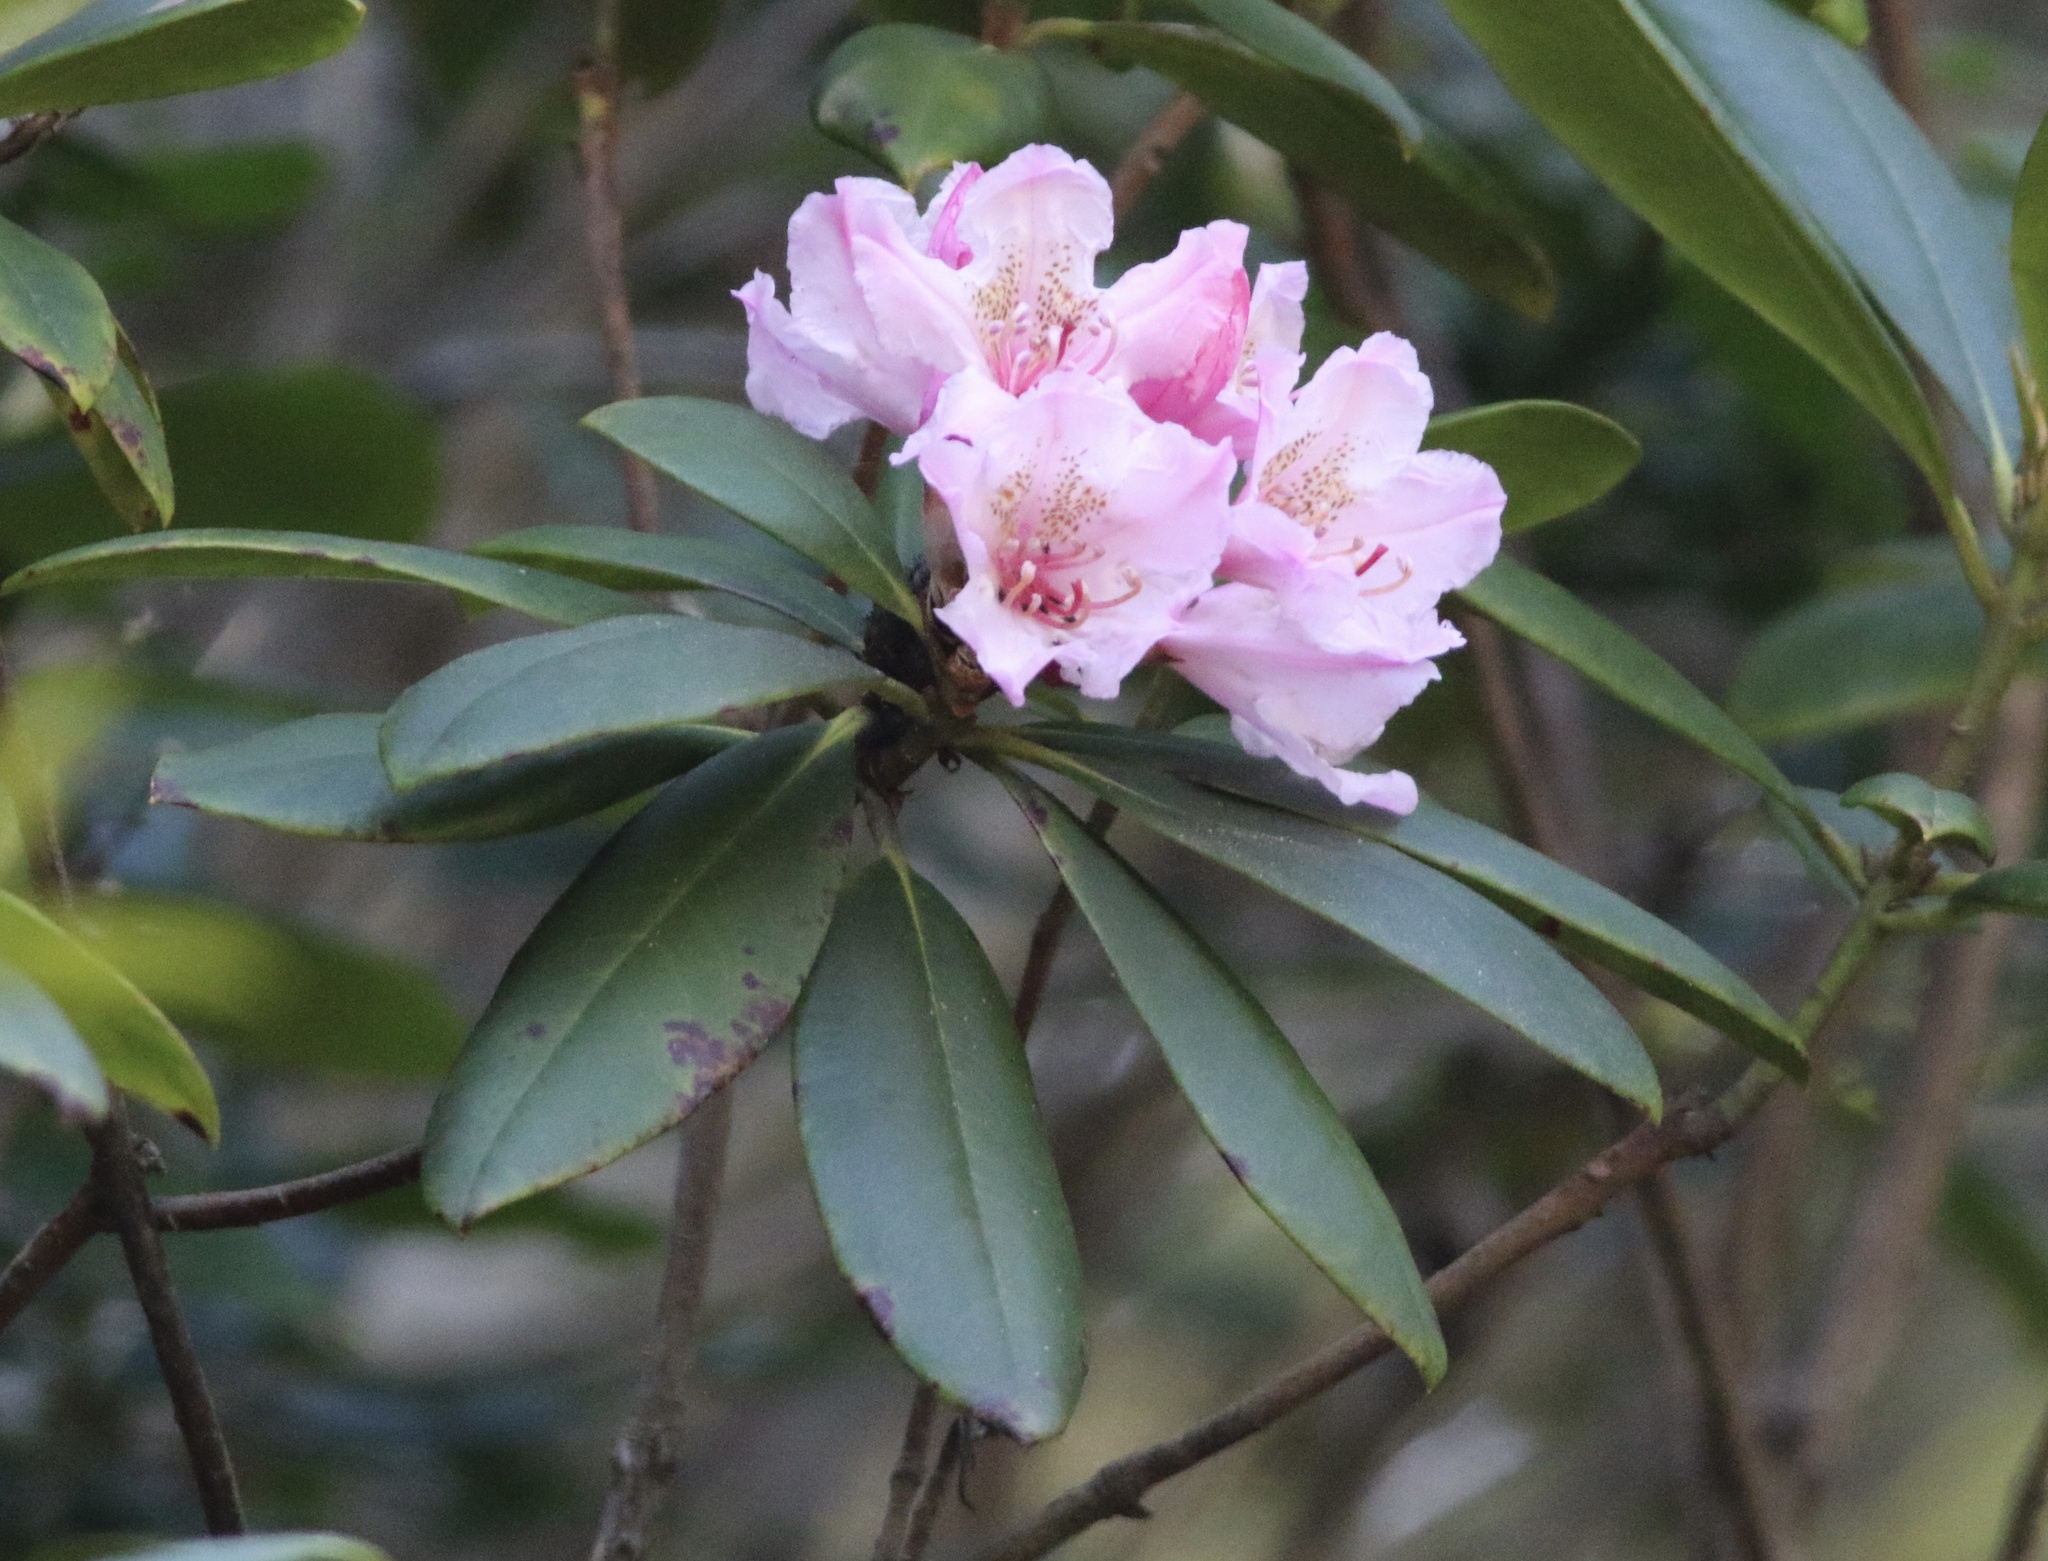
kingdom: Plantae
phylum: Tracheophyta
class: Magnoliopsida
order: Ericales
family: Ericaceae
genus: Rhododendron
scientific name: Rhododendron macrophyllum
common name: California rose bay
